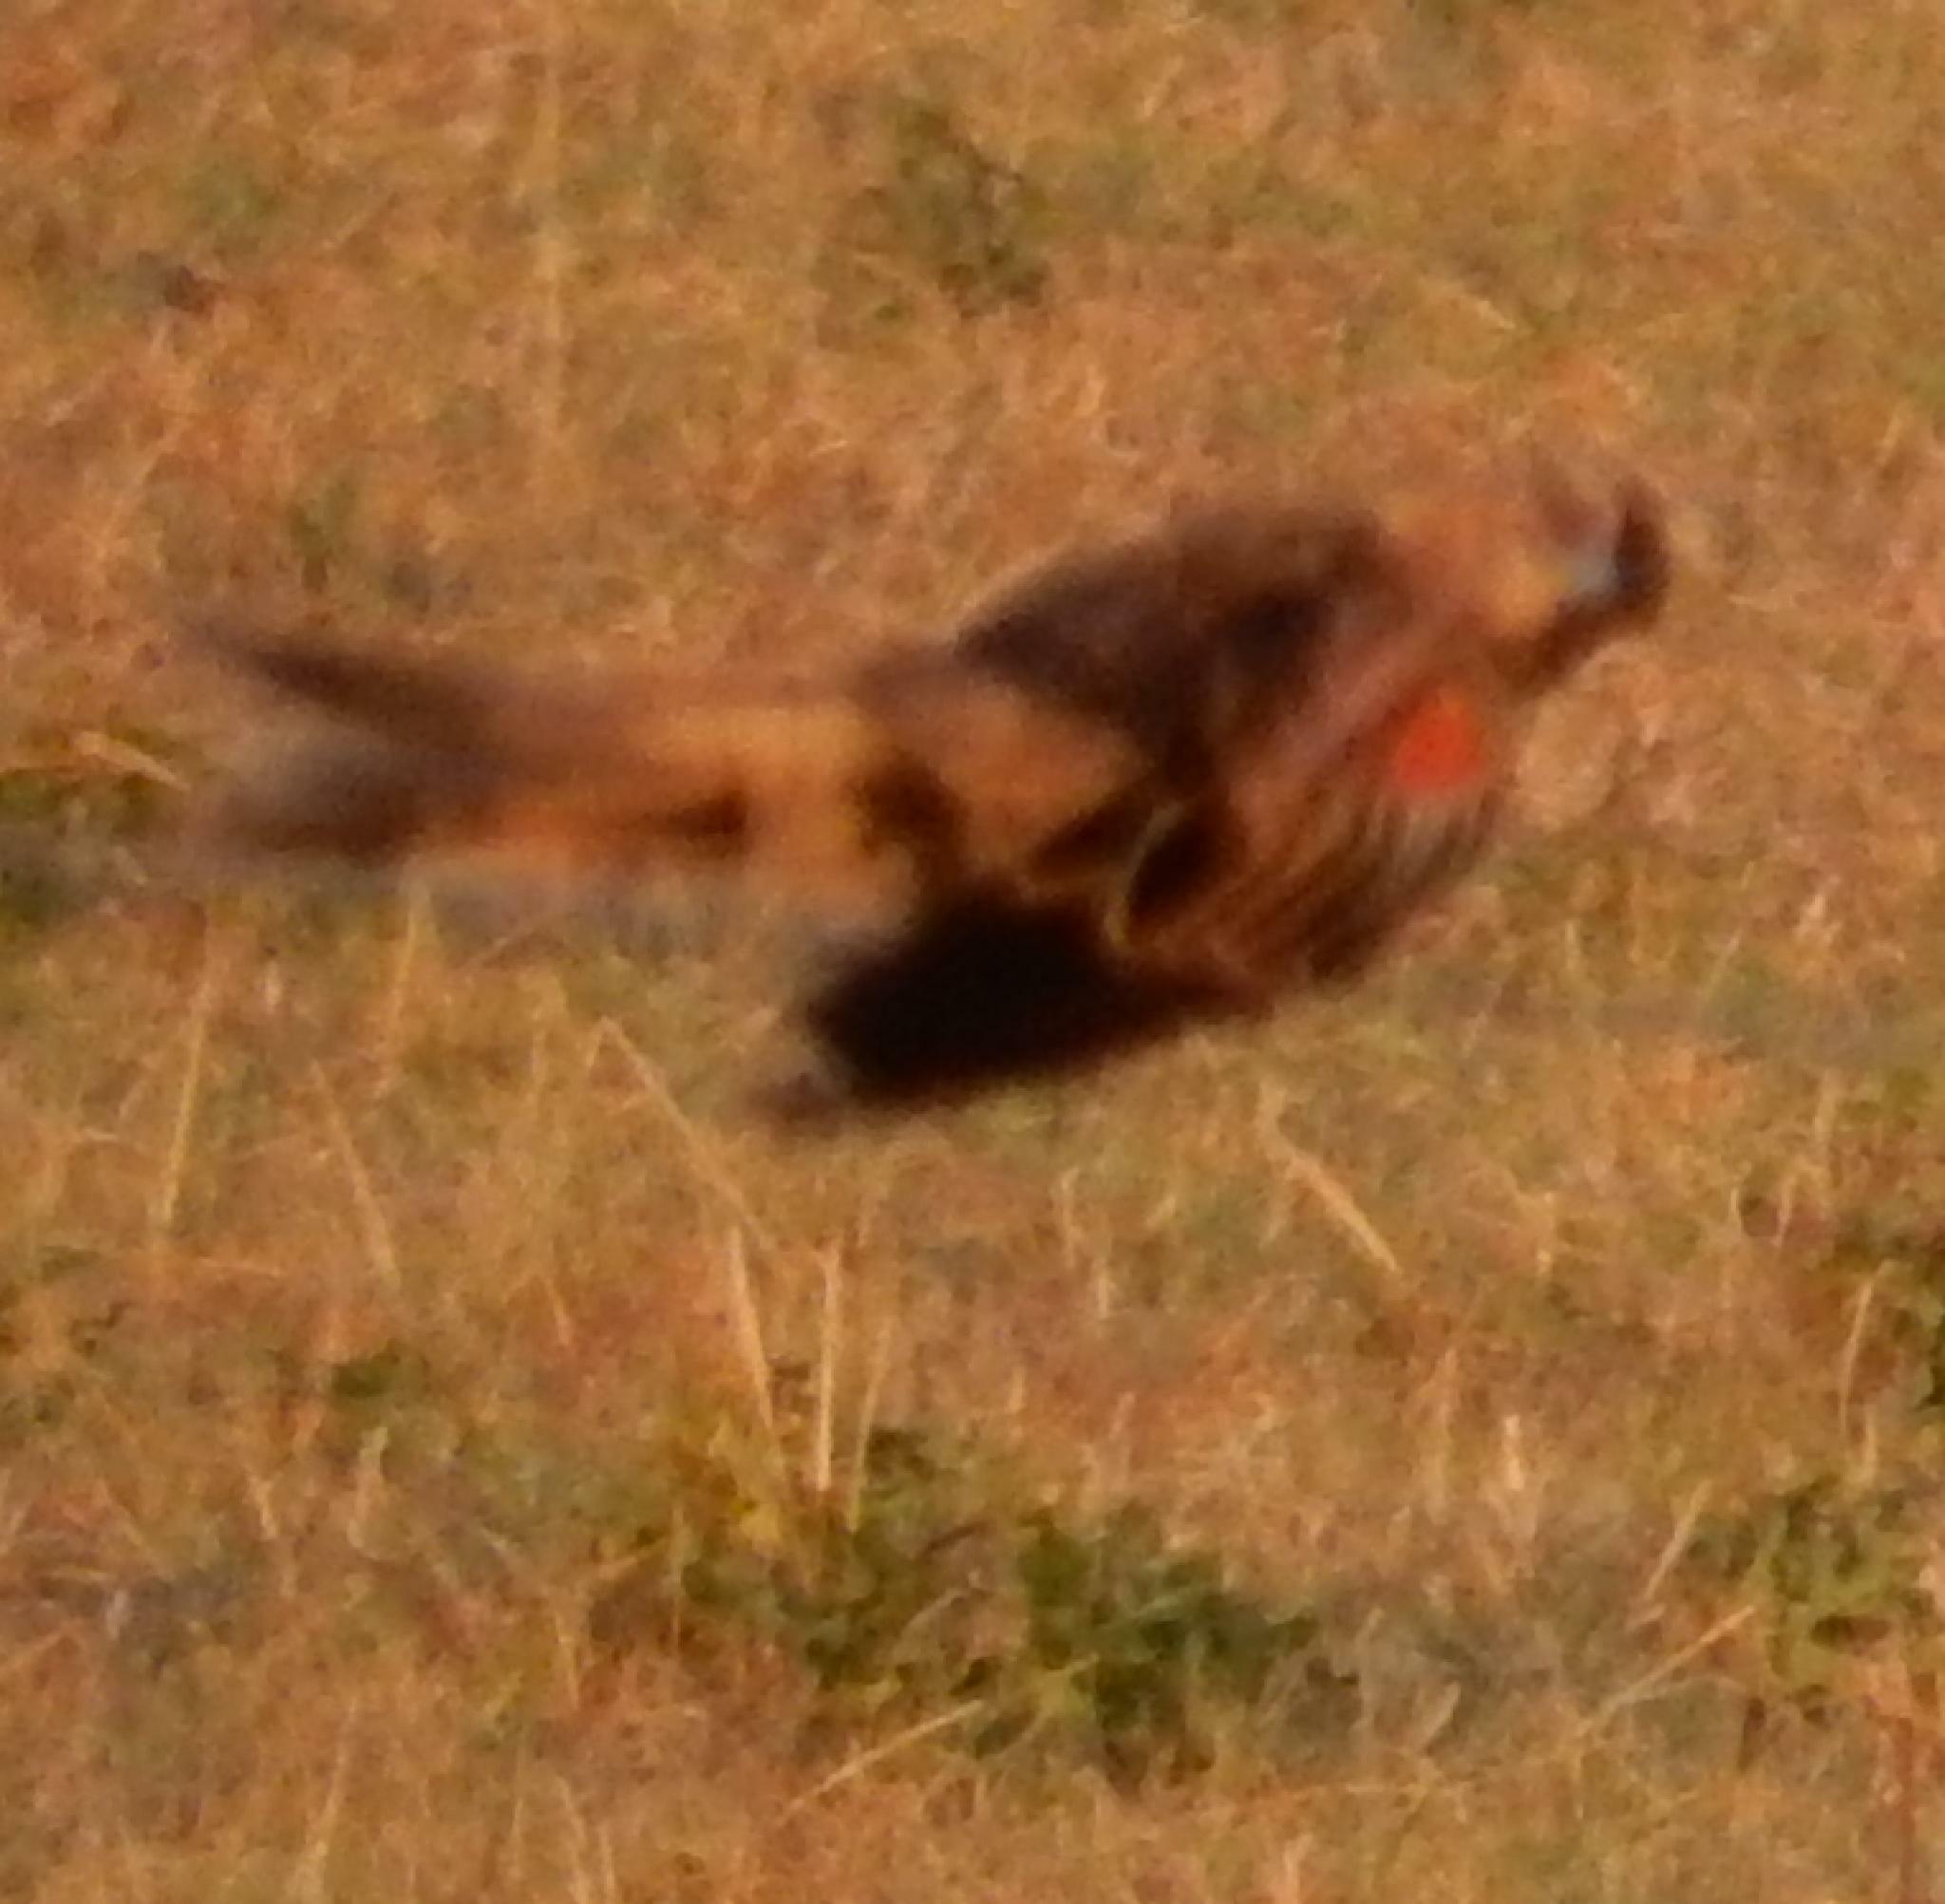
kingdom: Animalia
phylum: Chordata
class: Aves
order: Passeriformes
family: Ploceidae
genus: Euplectes
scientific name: Euplectes progne
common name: Long-tailed widowbird
